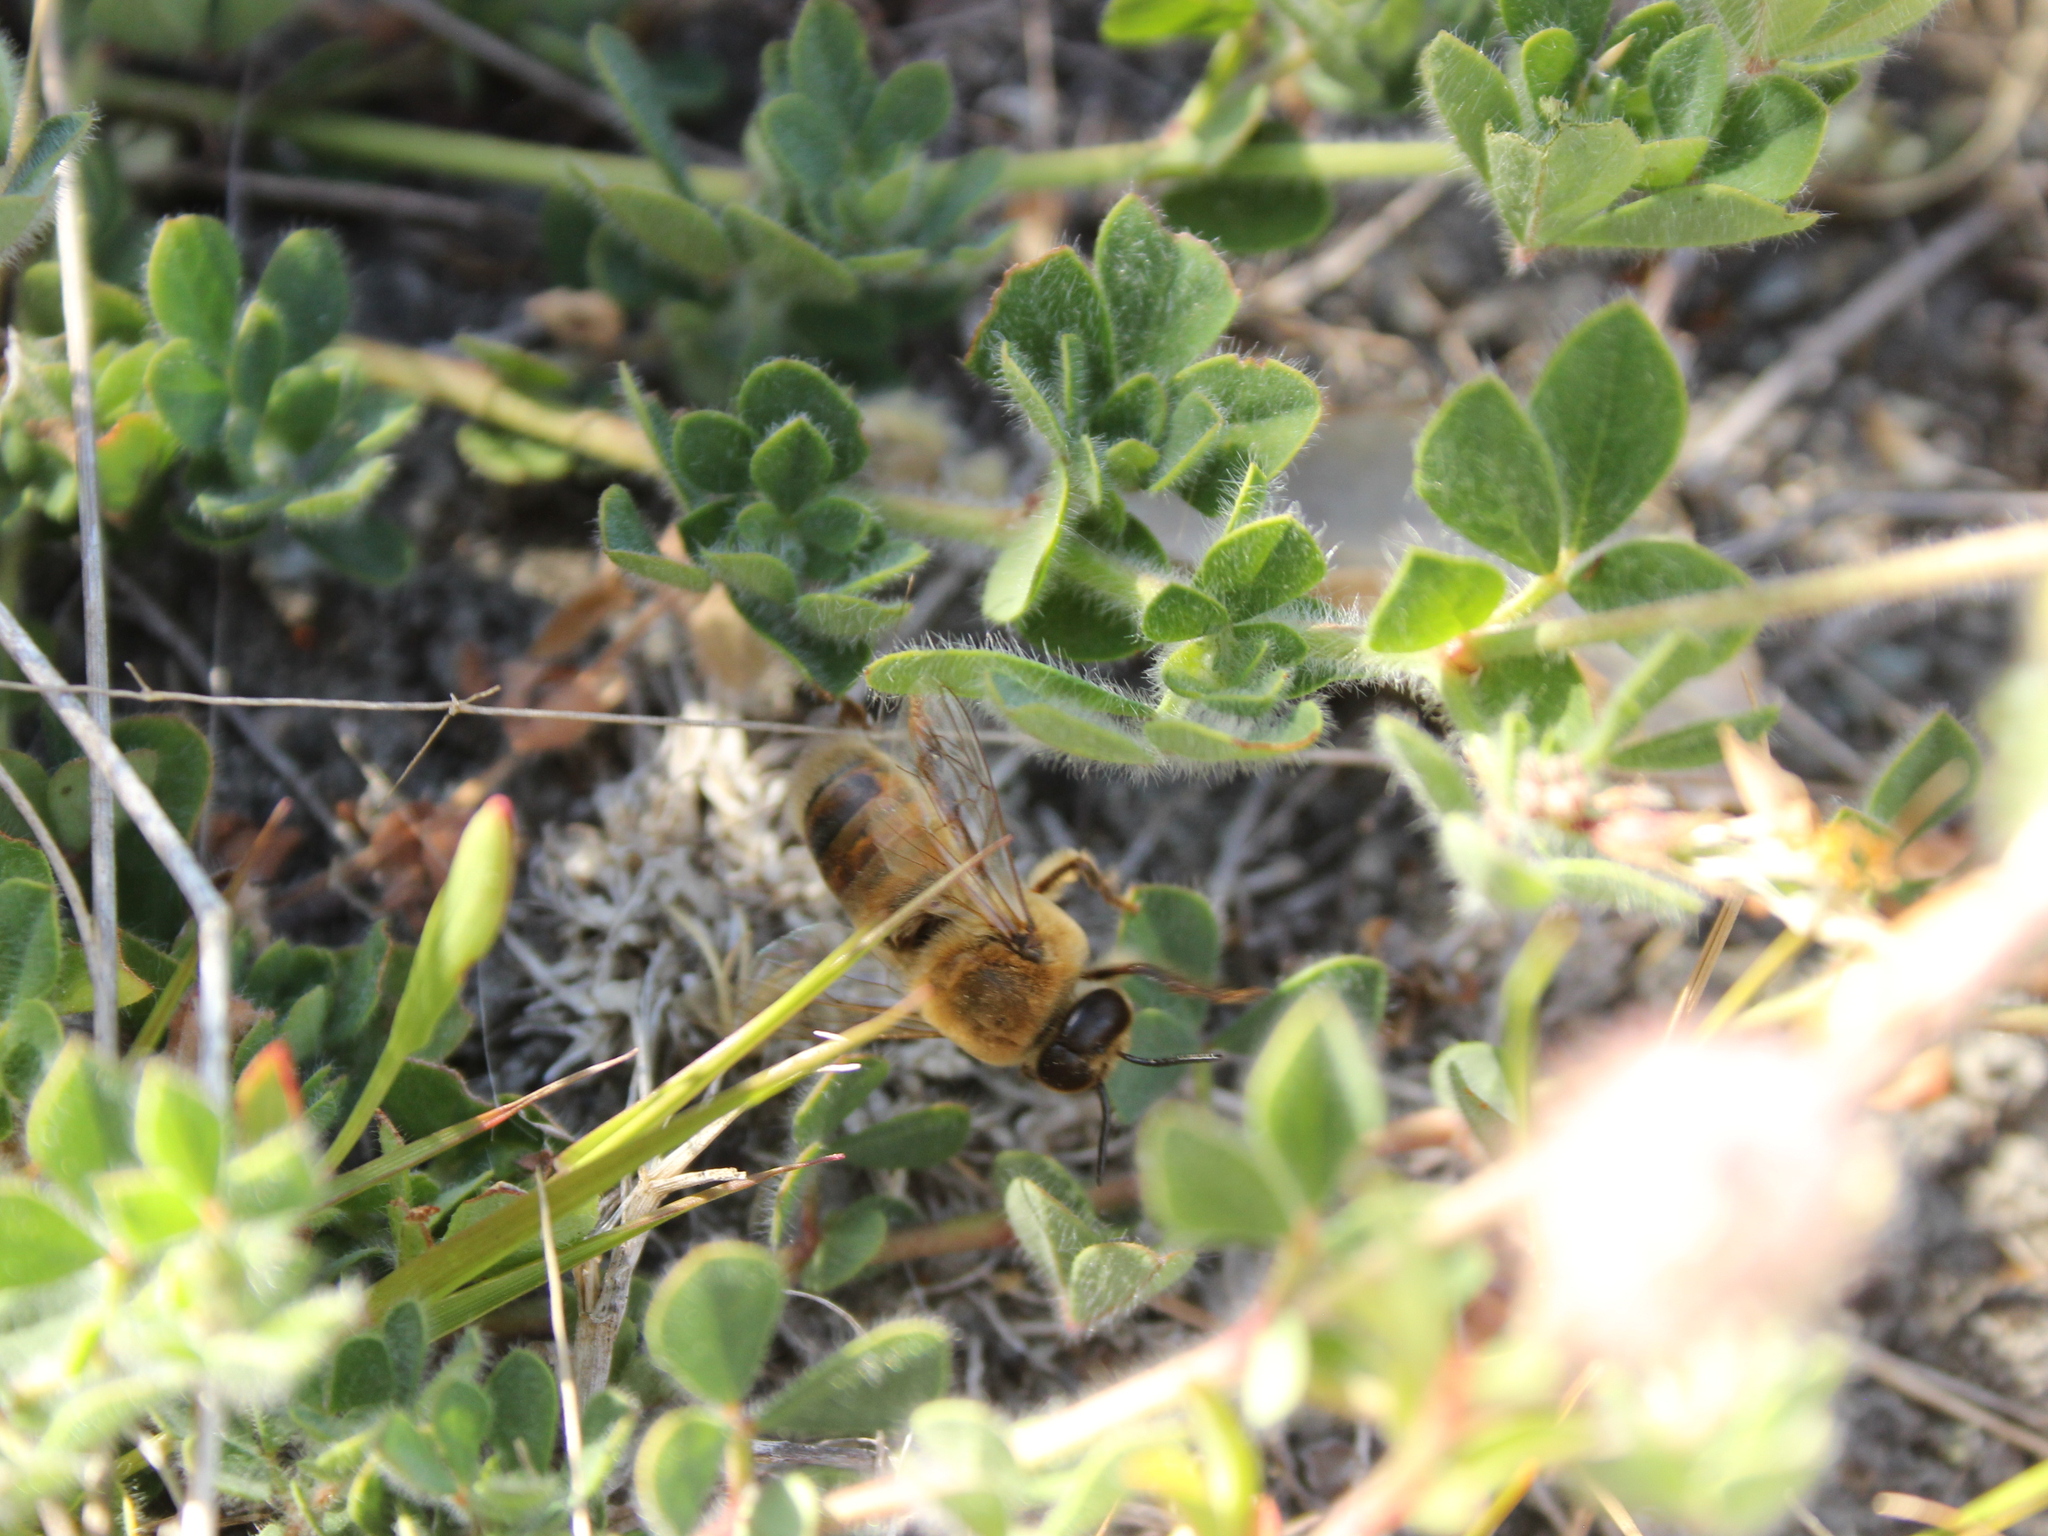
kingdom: Animalia
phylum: Arthropoda
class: Insecta
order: Hymenoptera
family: Apidae
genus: Apis
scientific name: Apis mellifera
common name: Honey bee
